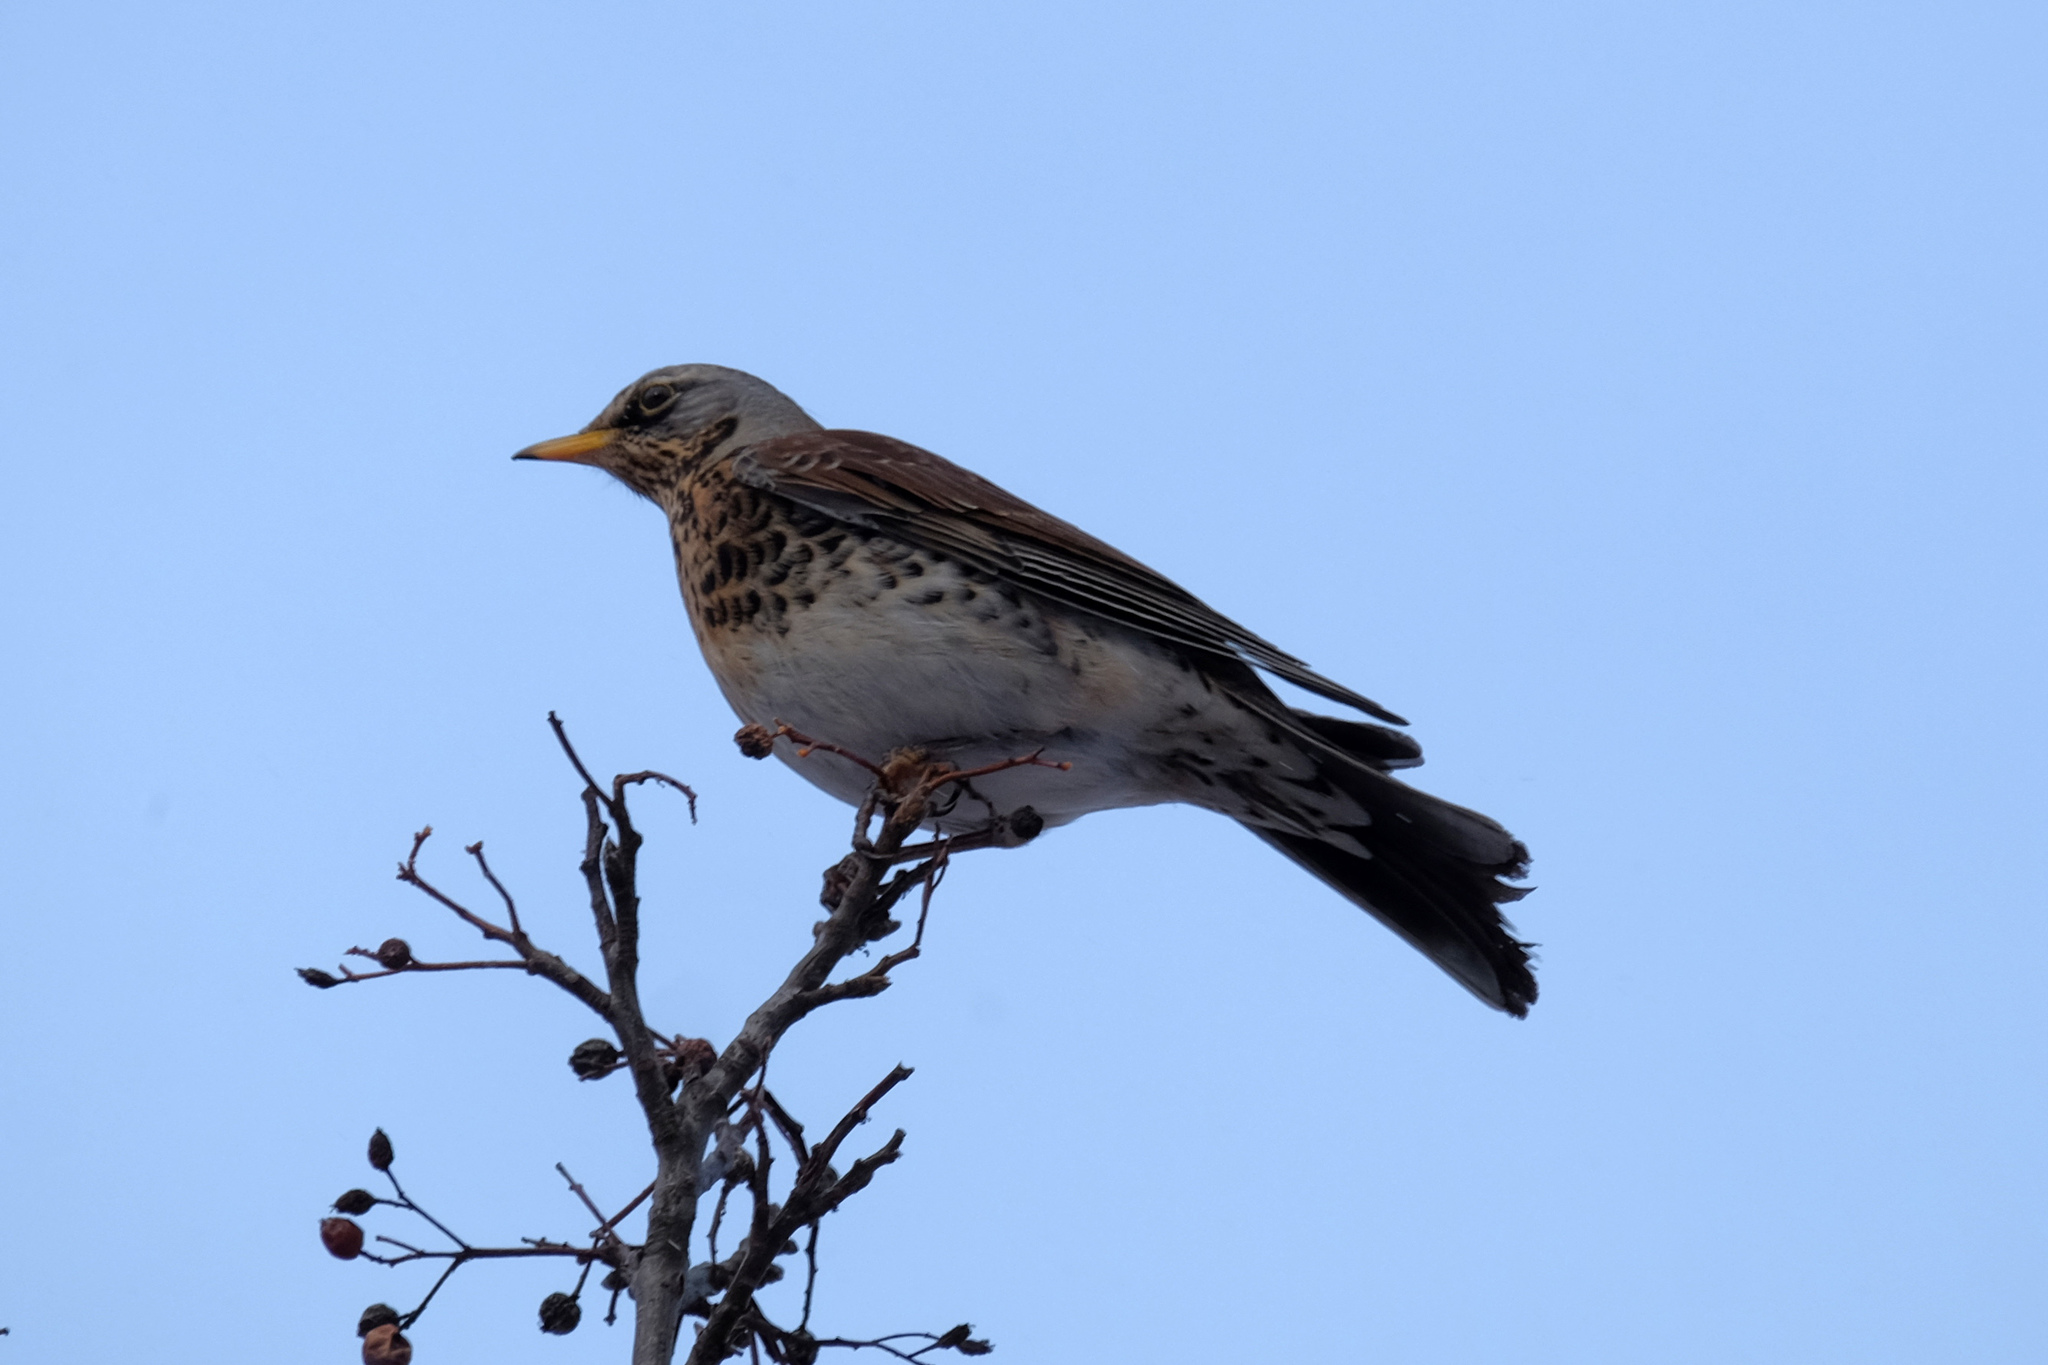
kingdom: Animalia
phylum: Chordata
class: Aves
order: Passeriformes
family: Turdidae
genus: Turdus
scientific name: Turdus pilaris
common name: Fieldfare
